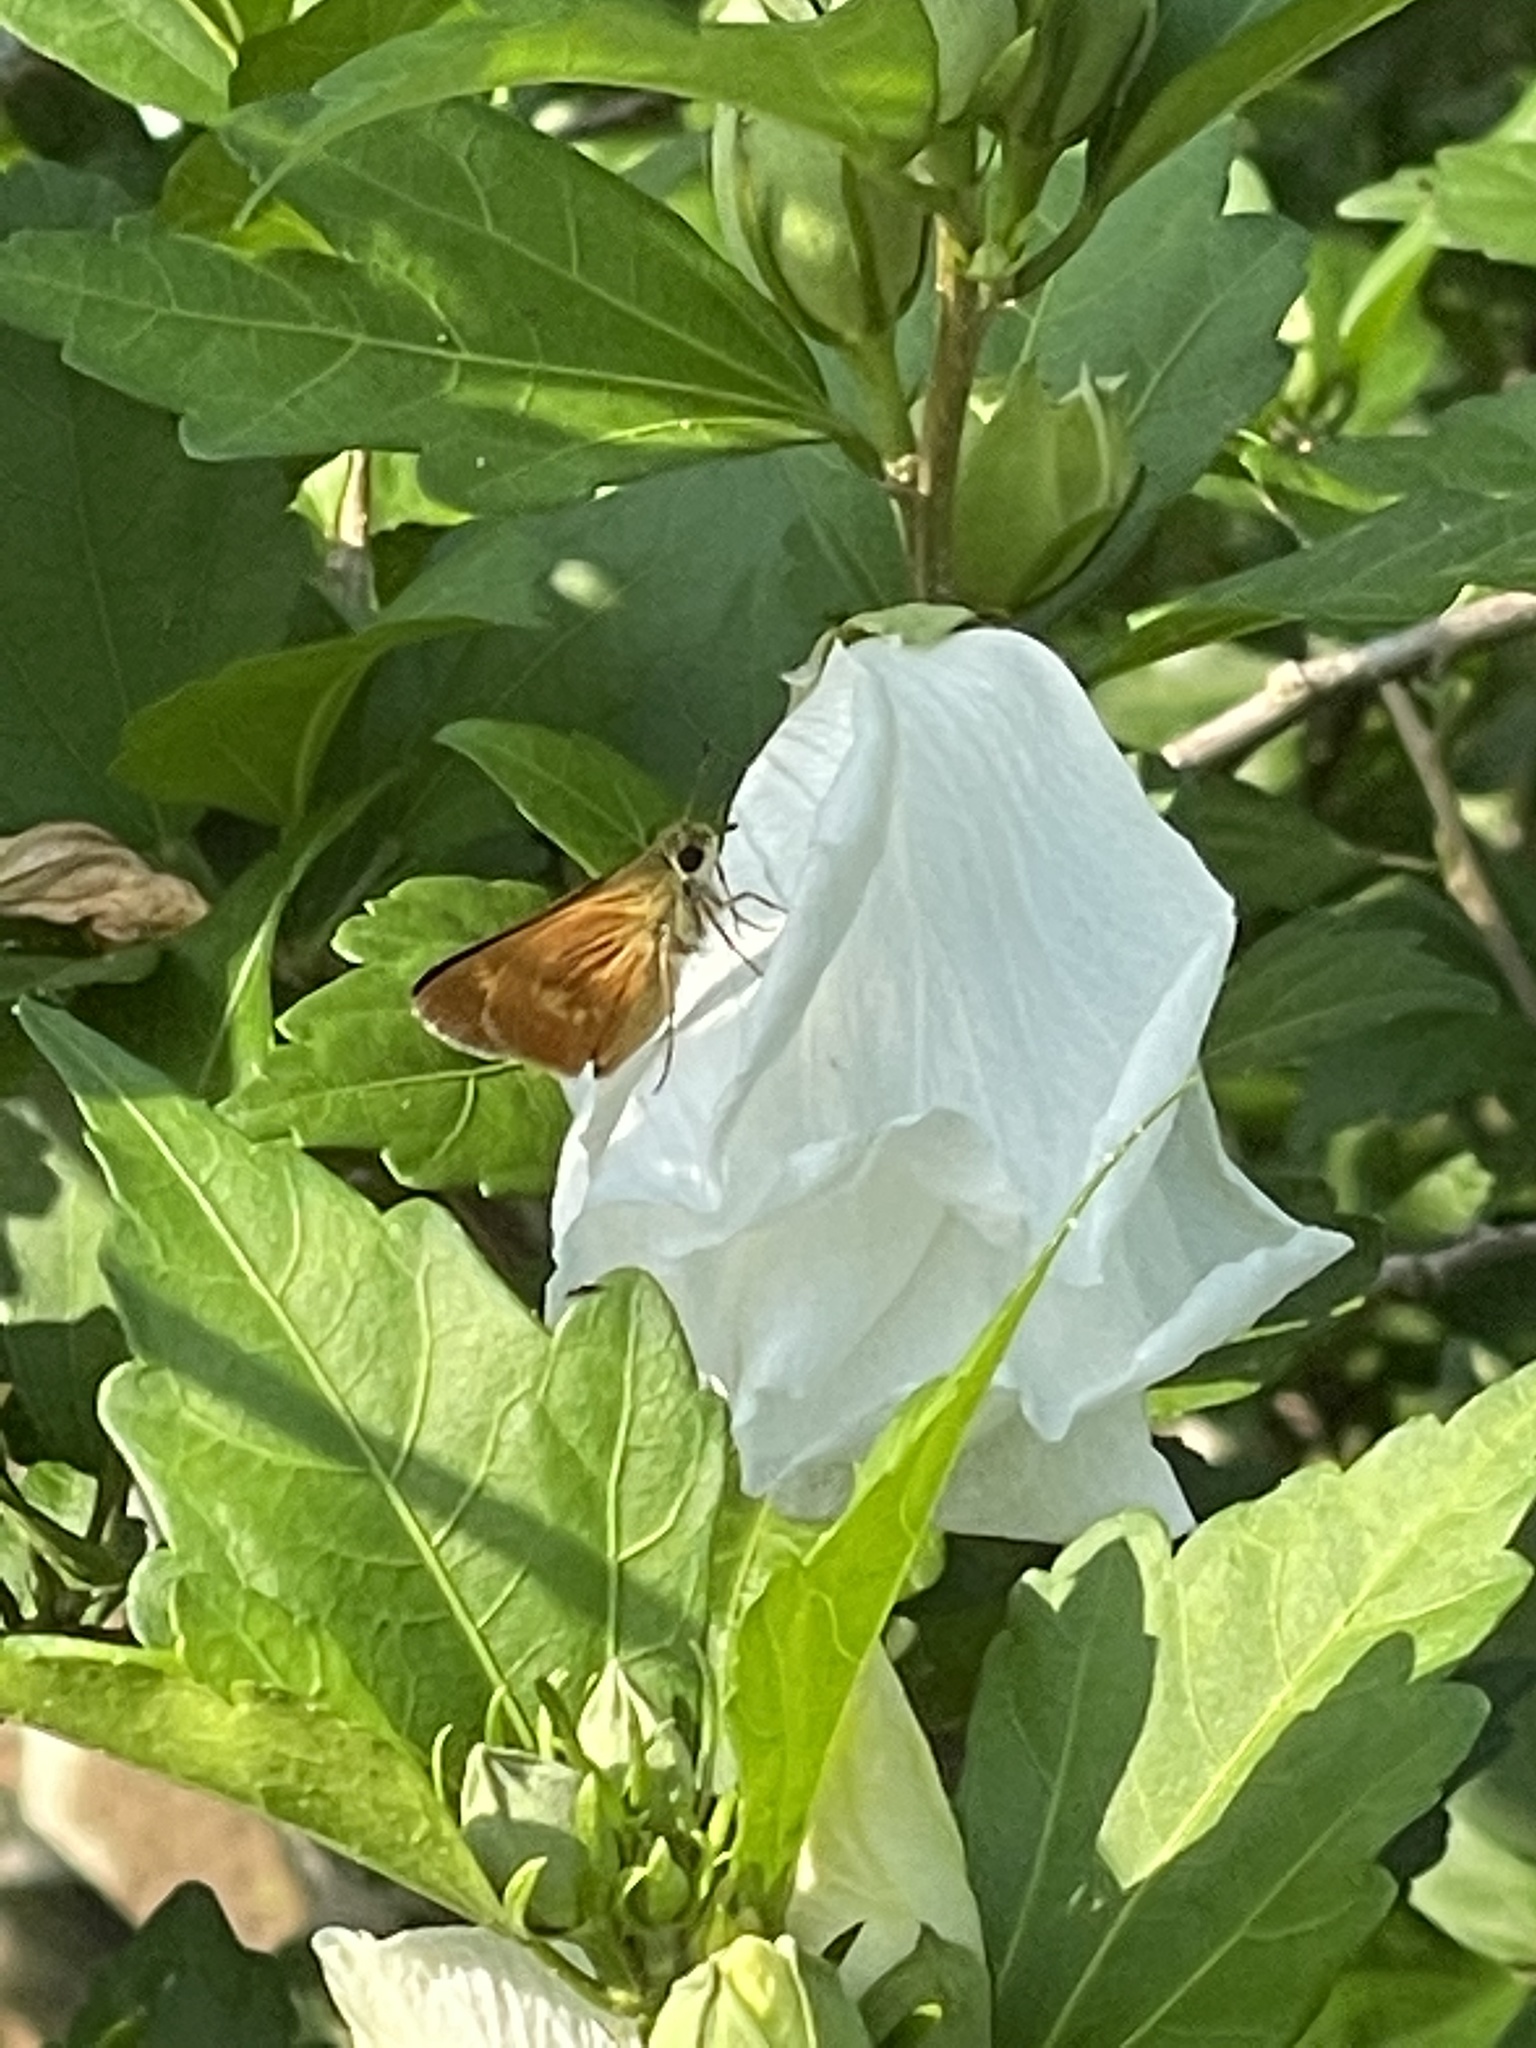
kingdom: Animalia
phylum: Arthropoda
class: Insecta
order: Lepidoptera
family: Hesperiidae
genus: Polites
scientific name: Polites otho
